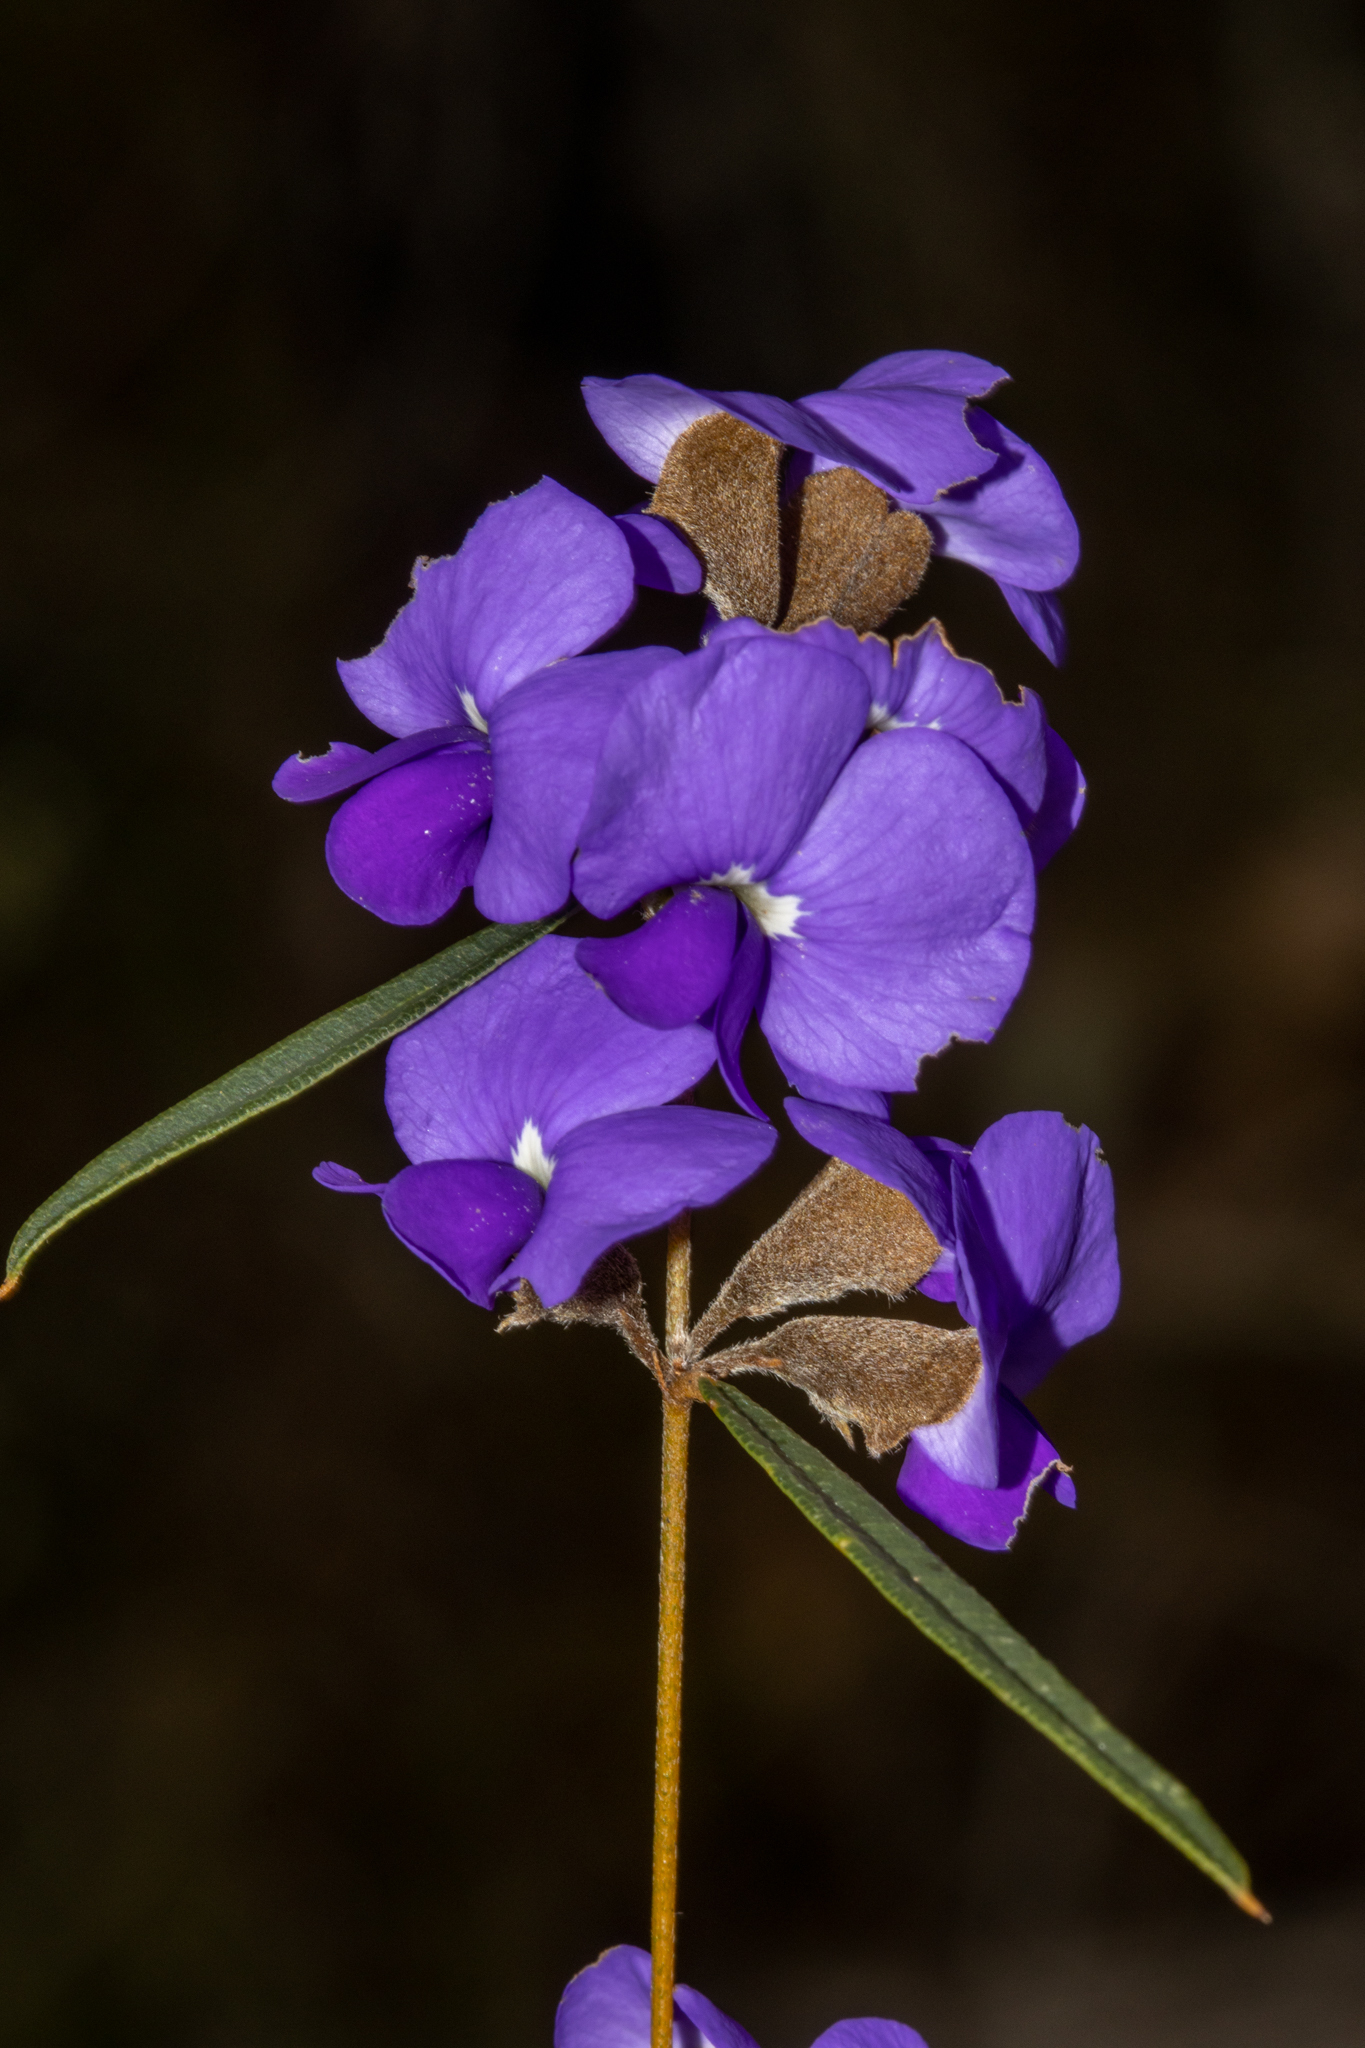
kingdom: Plantae
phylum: Tracheophyta
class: Magnoliopsida
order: Fabales
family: Fabaceae
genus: Hovea
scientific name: Hovea trisperma
